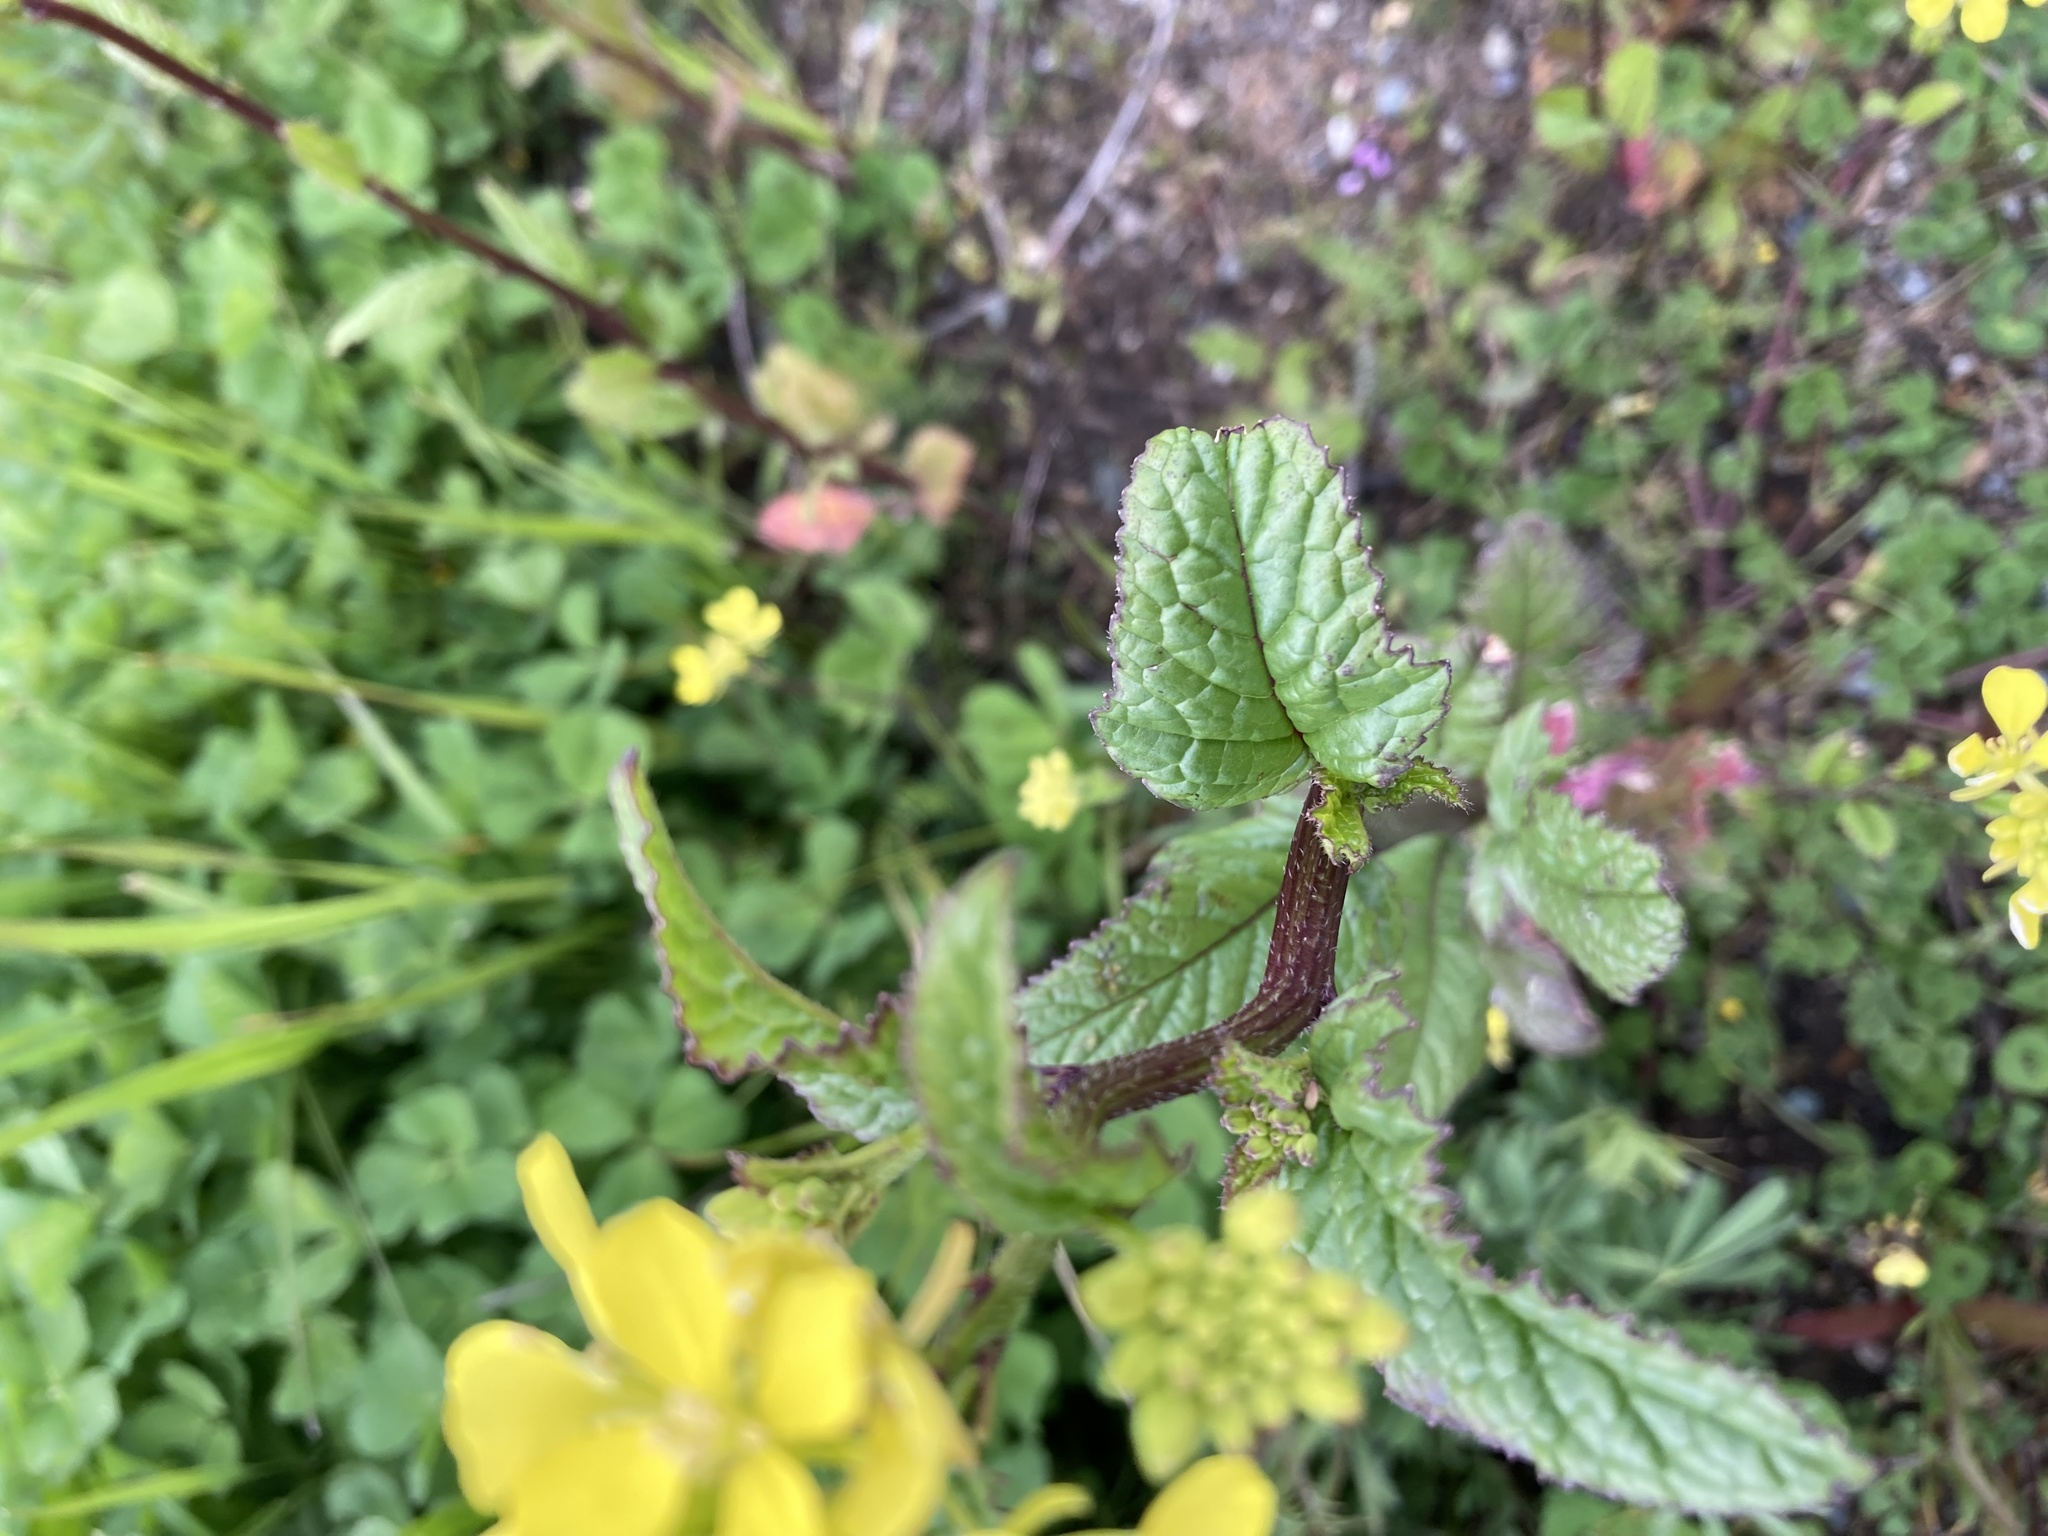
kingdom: Plantae
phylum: Tracheophyta
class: Magnoliopsida
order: Brassicales
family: Brassicaceae
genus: Sinapis
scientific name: Sinapis arvensis
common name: Charlock
